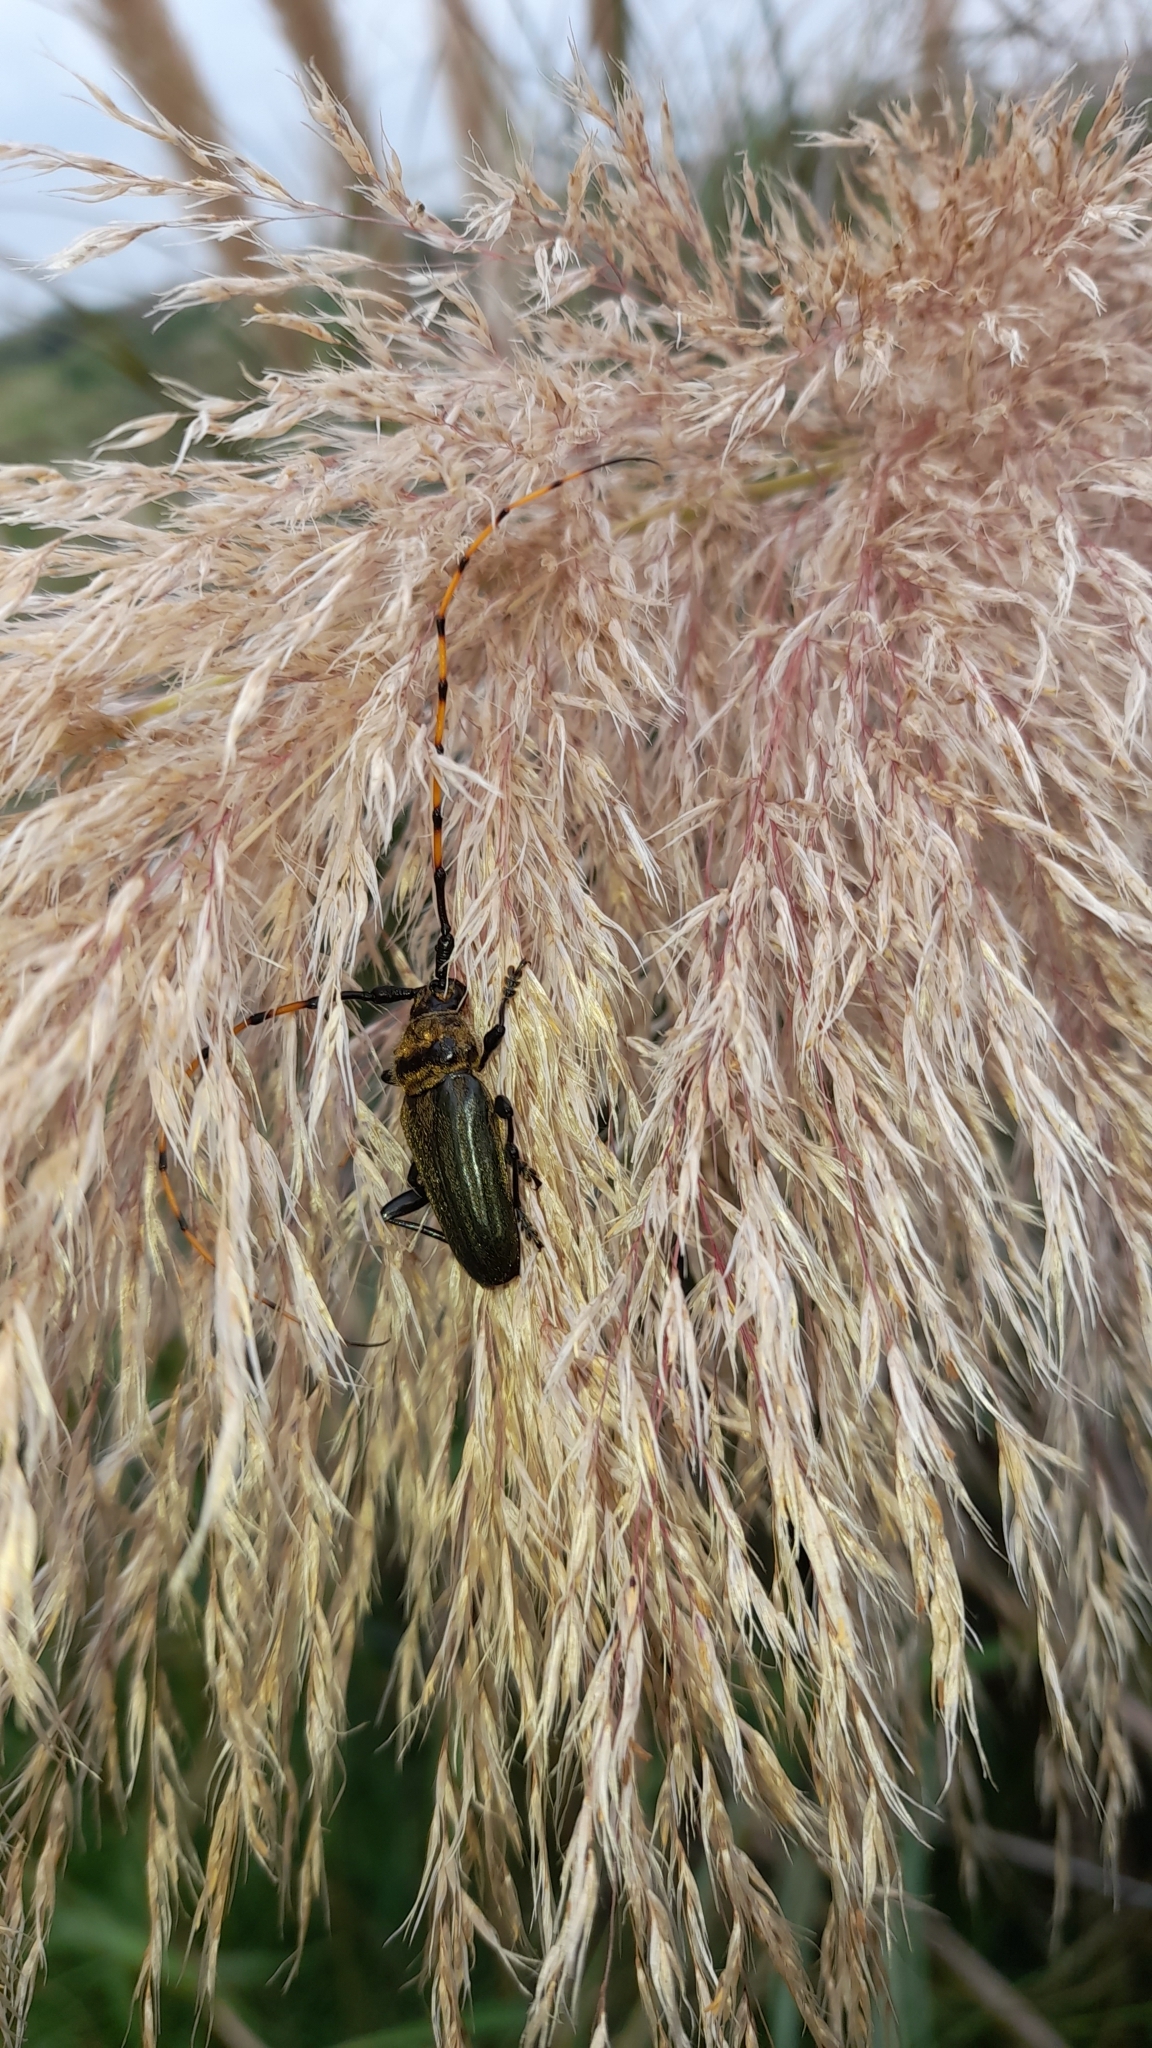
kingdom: Animalia
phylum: Arthropoda
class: Insecta
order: Coleoptera
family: Cerambycidae
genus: Retrachydes
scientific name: Retrachydes thoracicus
